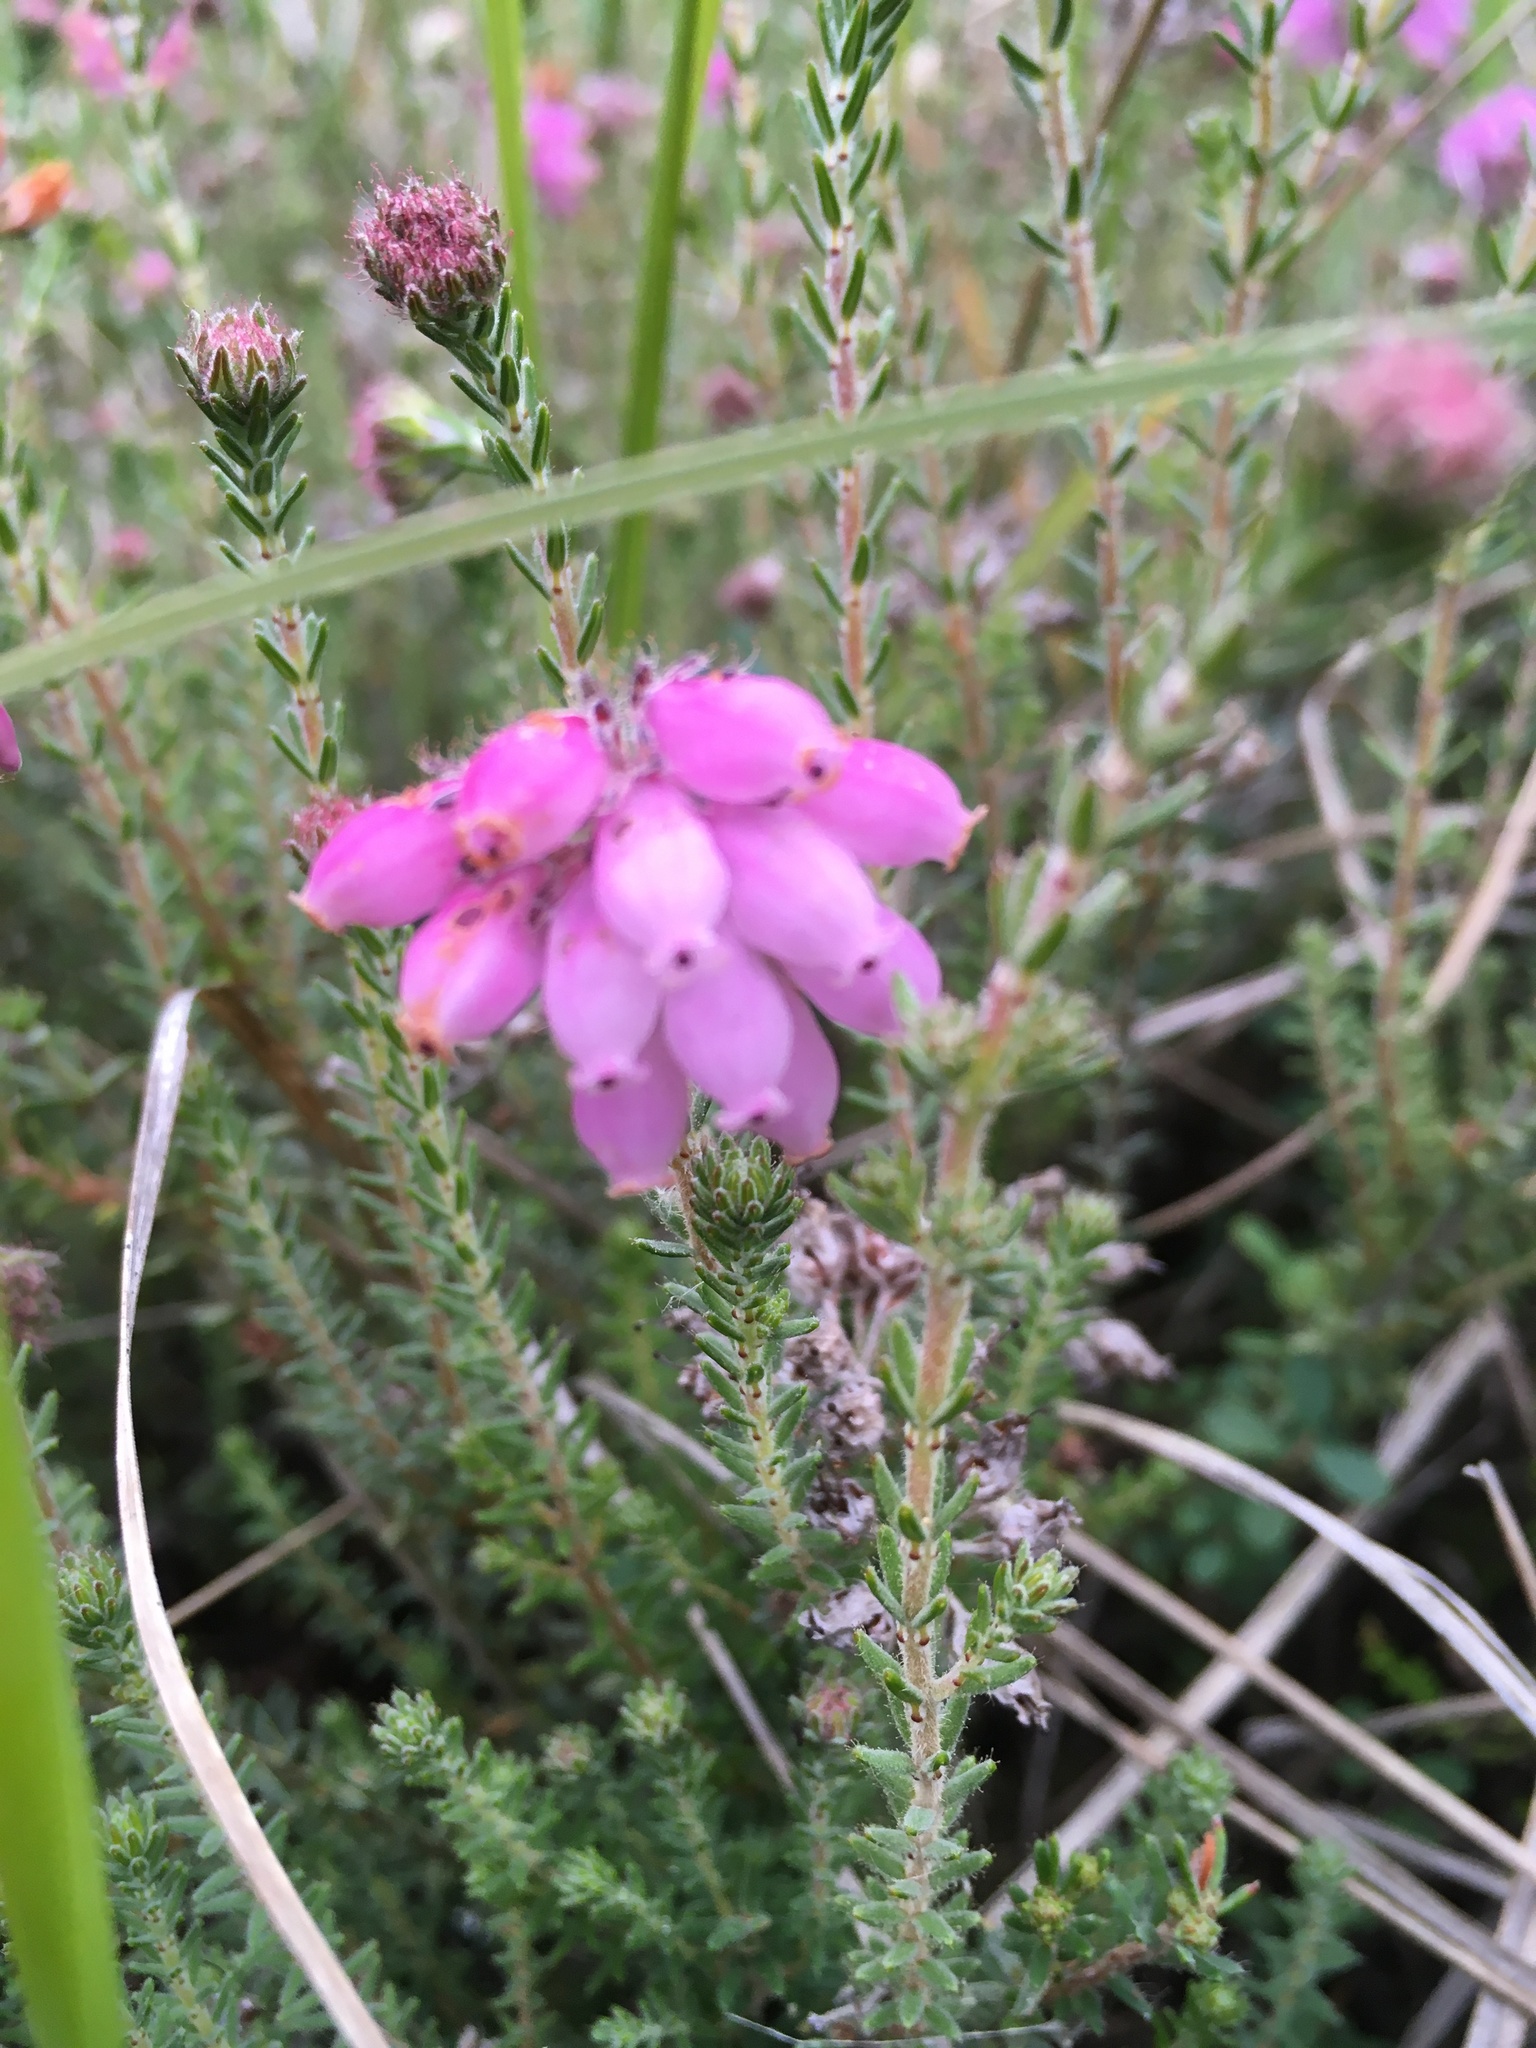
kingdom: Plantae
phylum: Tracheophyta
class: Magnoliopsida
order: Ericales
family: Ericaceae
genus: Erica
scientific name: Erica tetralix
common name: Cross-leaved heath
